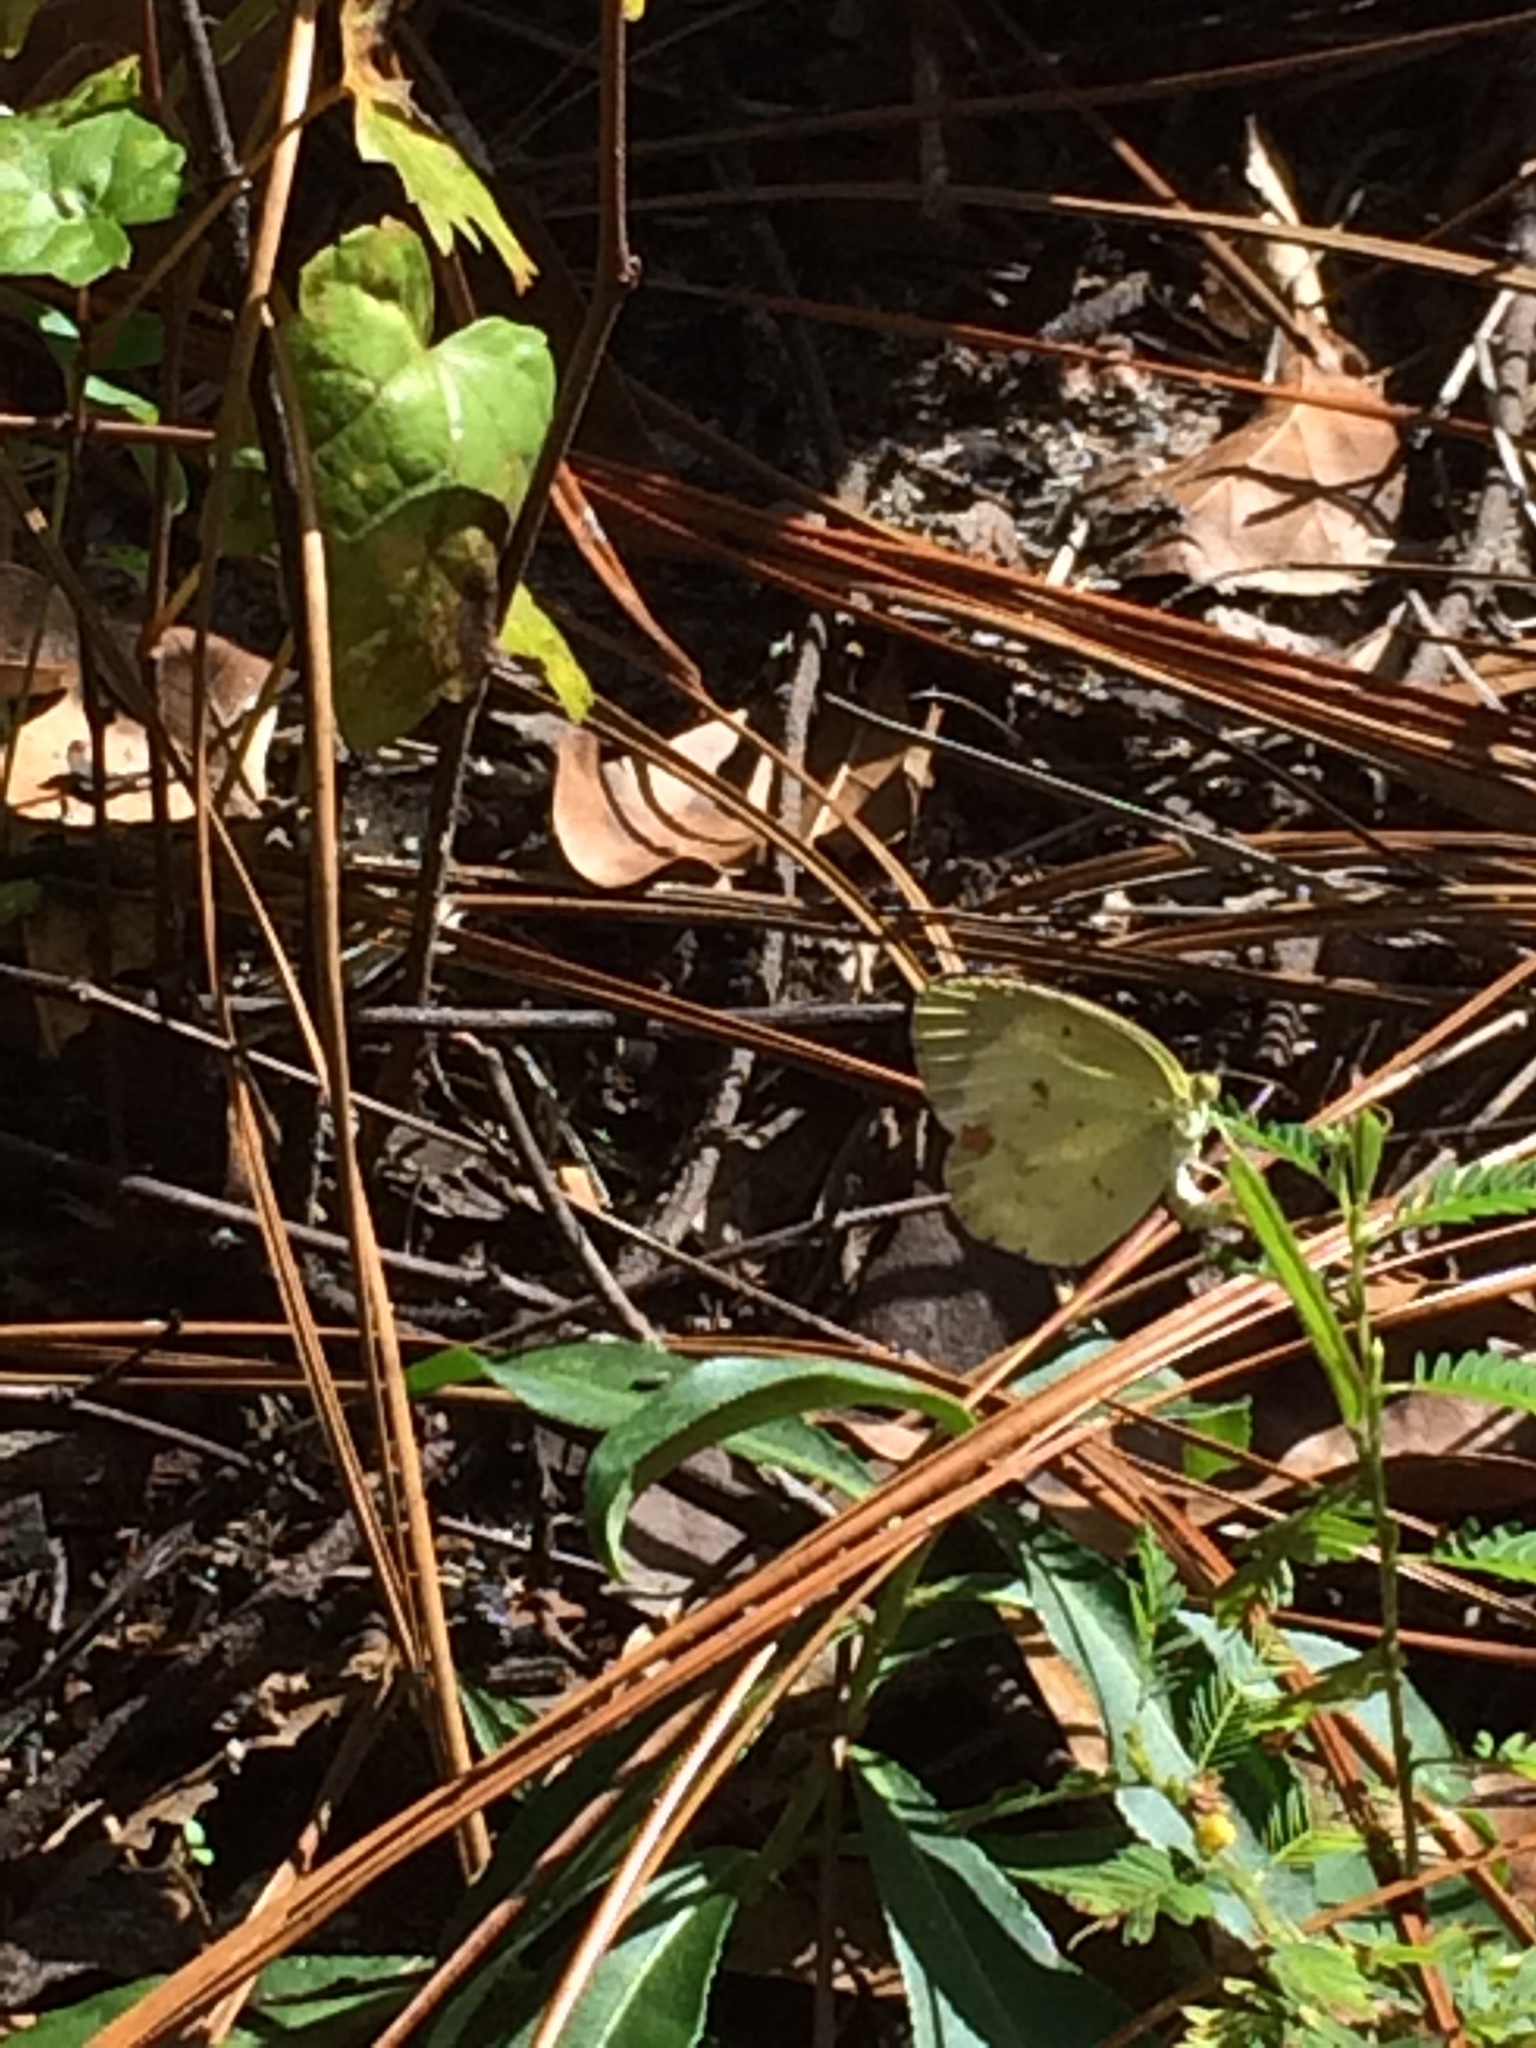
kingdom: Animalia
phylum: Arthropoda
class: Insecta
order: Lepidoptera
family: Pieridae
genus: Pyrisitia
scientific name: Pyrisitia lisa
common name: Little yellow
